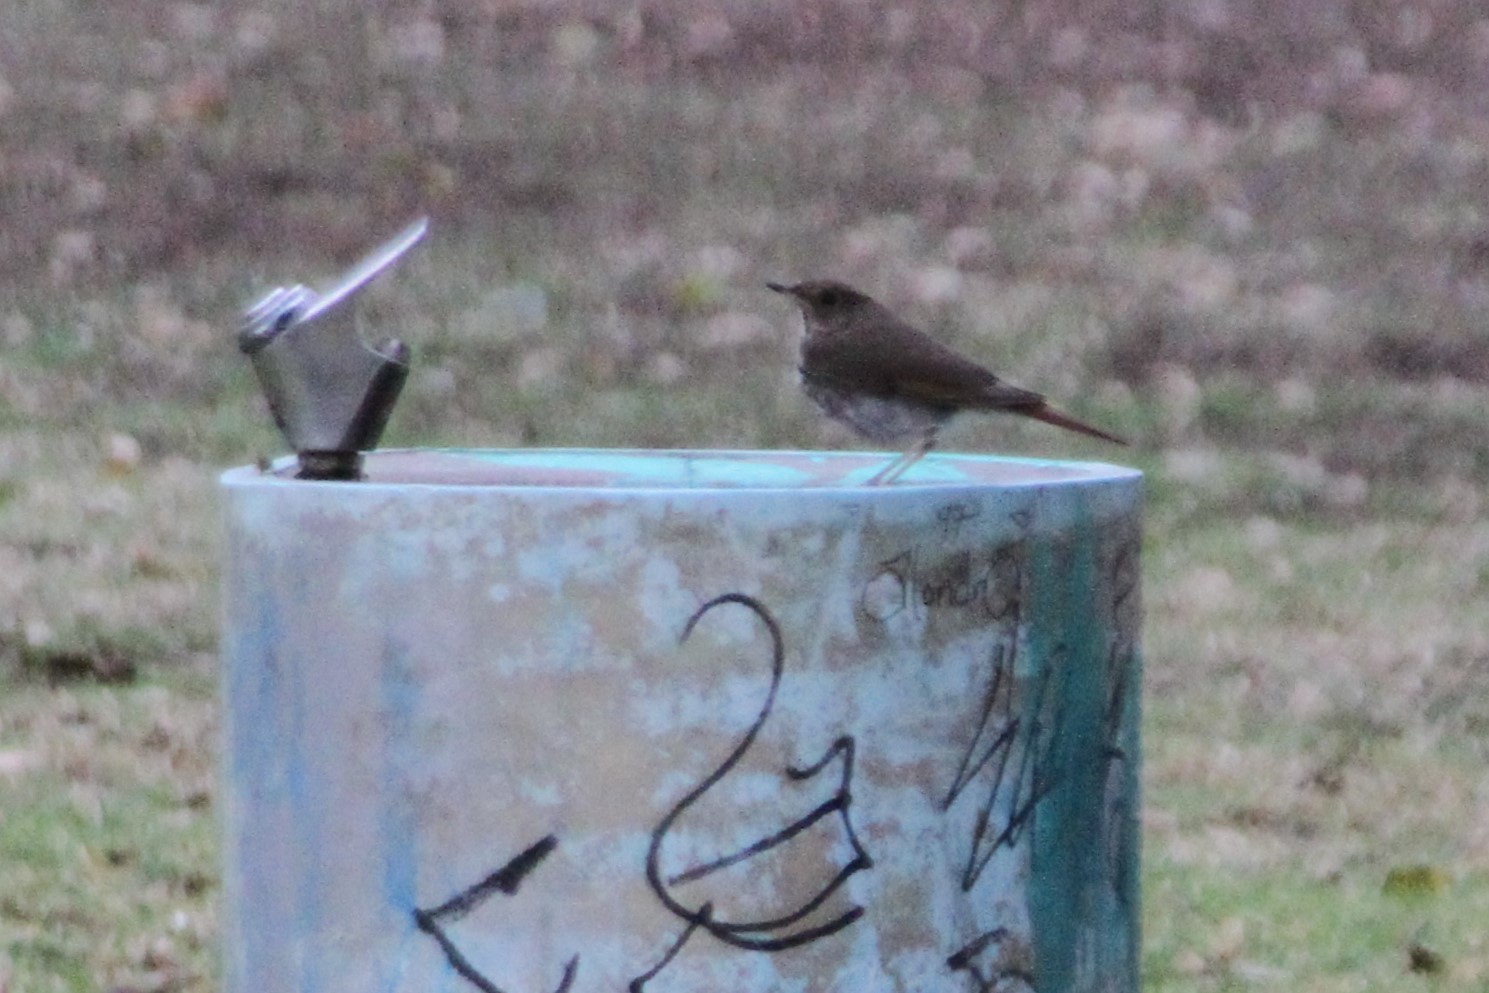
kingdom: Animalia
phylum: Chordata
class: Aves
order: Passeriformes
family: Turdidae
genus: Catharus
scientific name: Catharus guttatus
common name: Hermit thrush
